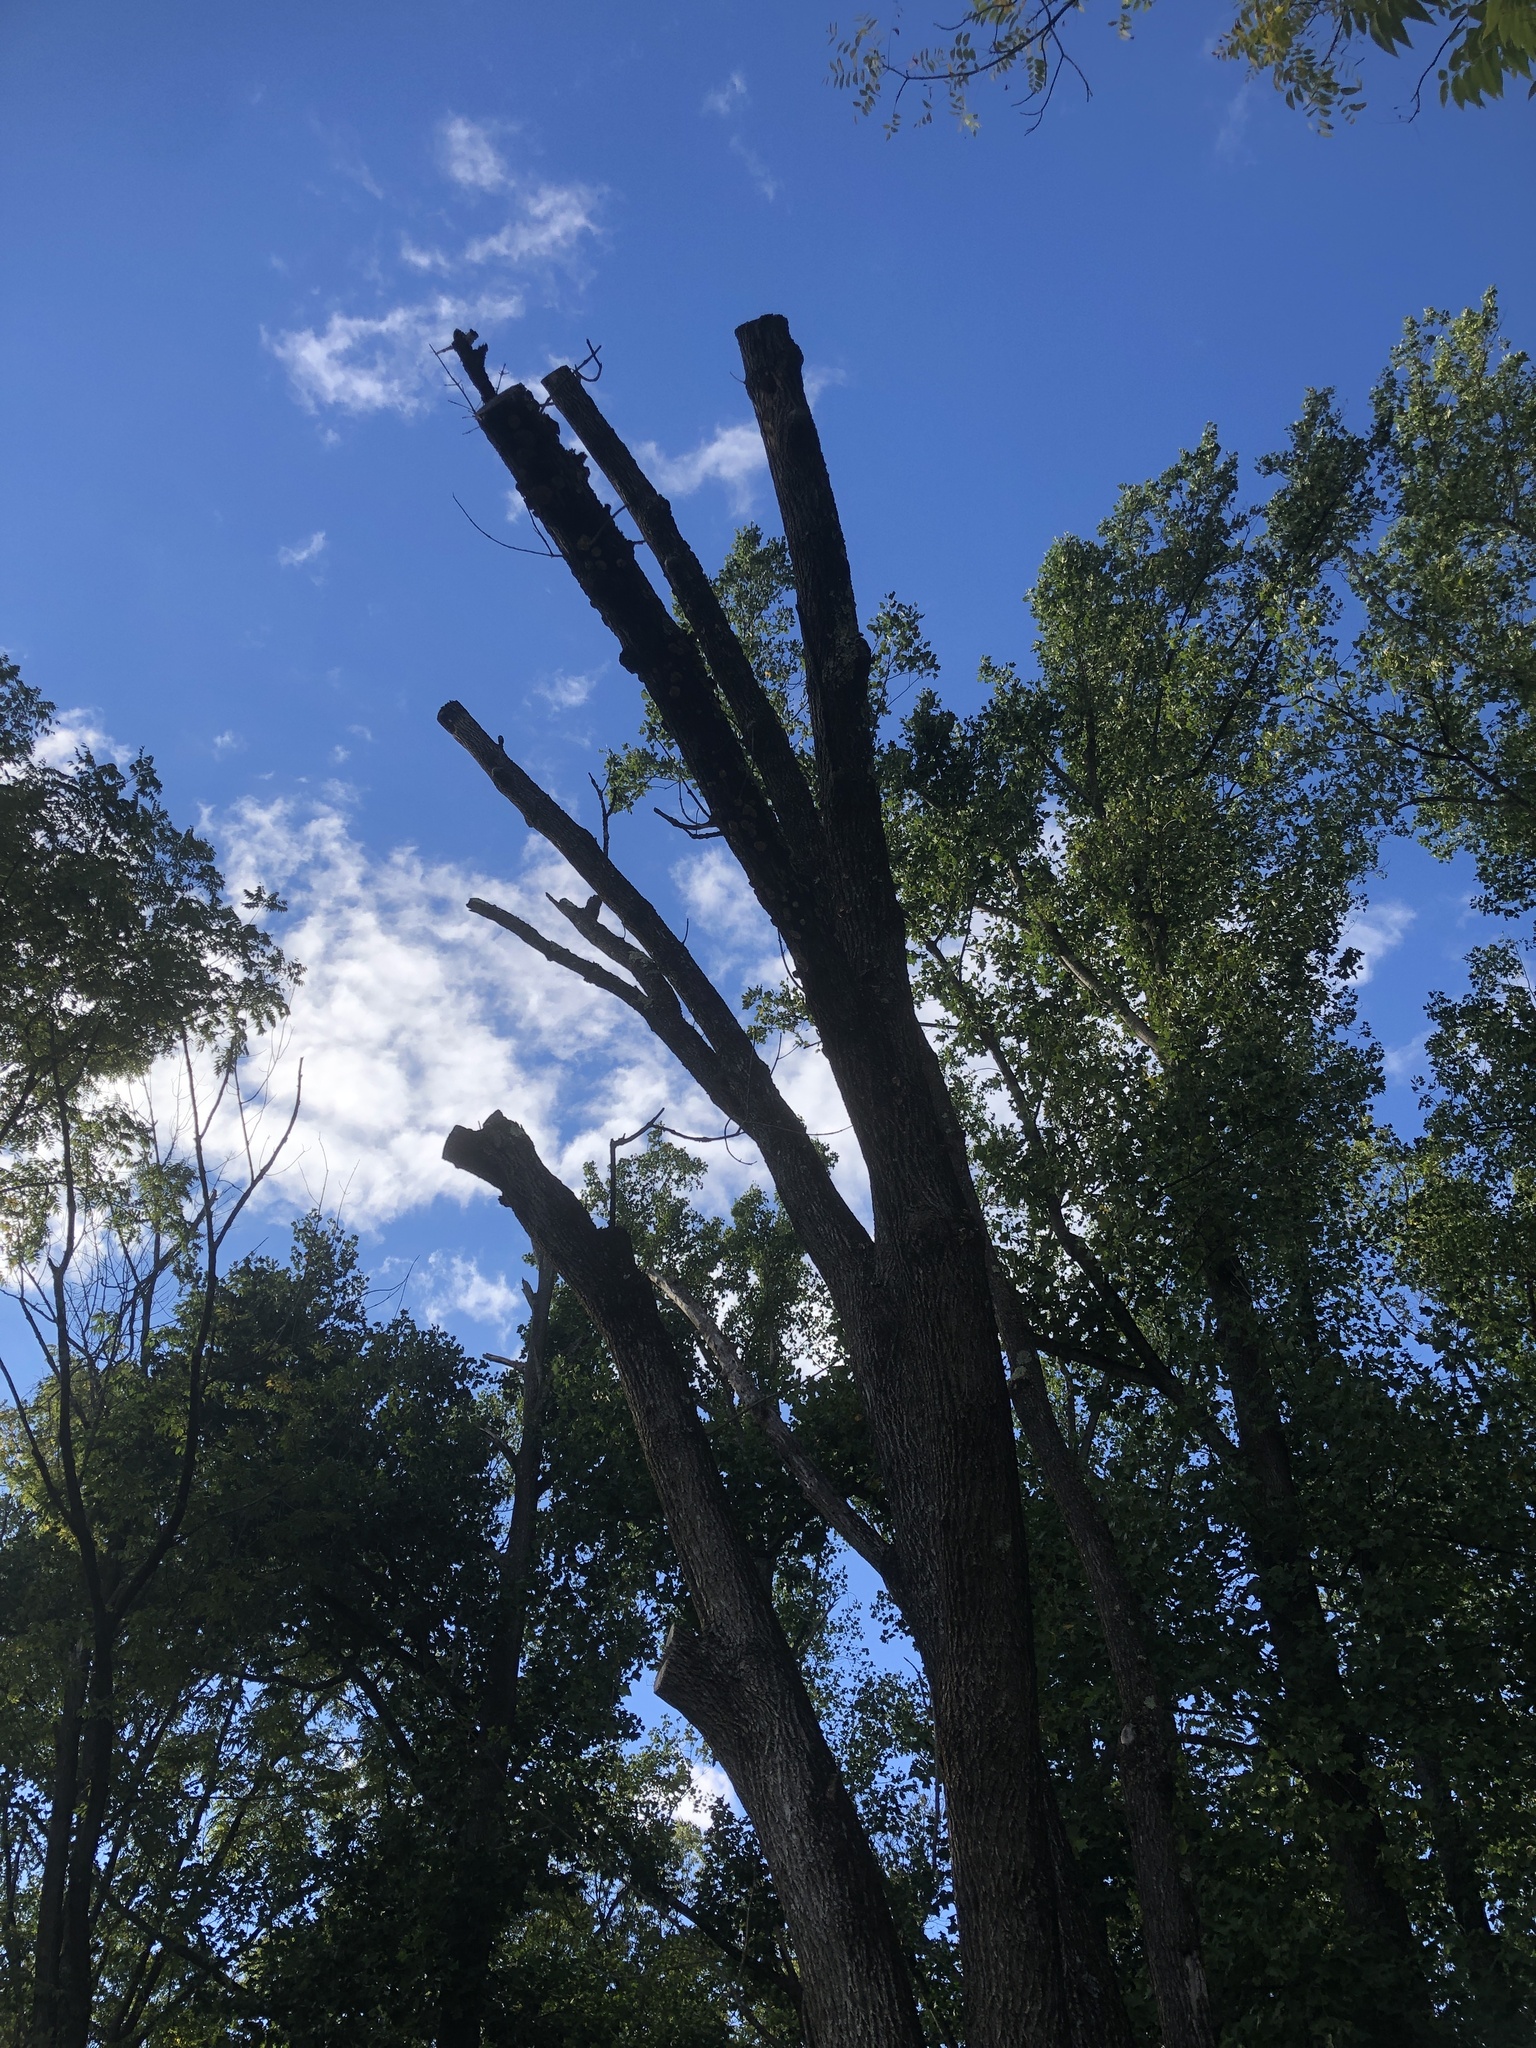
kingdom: Animalia
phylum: Arthropoda
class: Insecta
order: Coleoptera
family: Buprestidae
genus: Agrilus
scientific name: Agrilus planipennis
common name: Emerald ash borer
